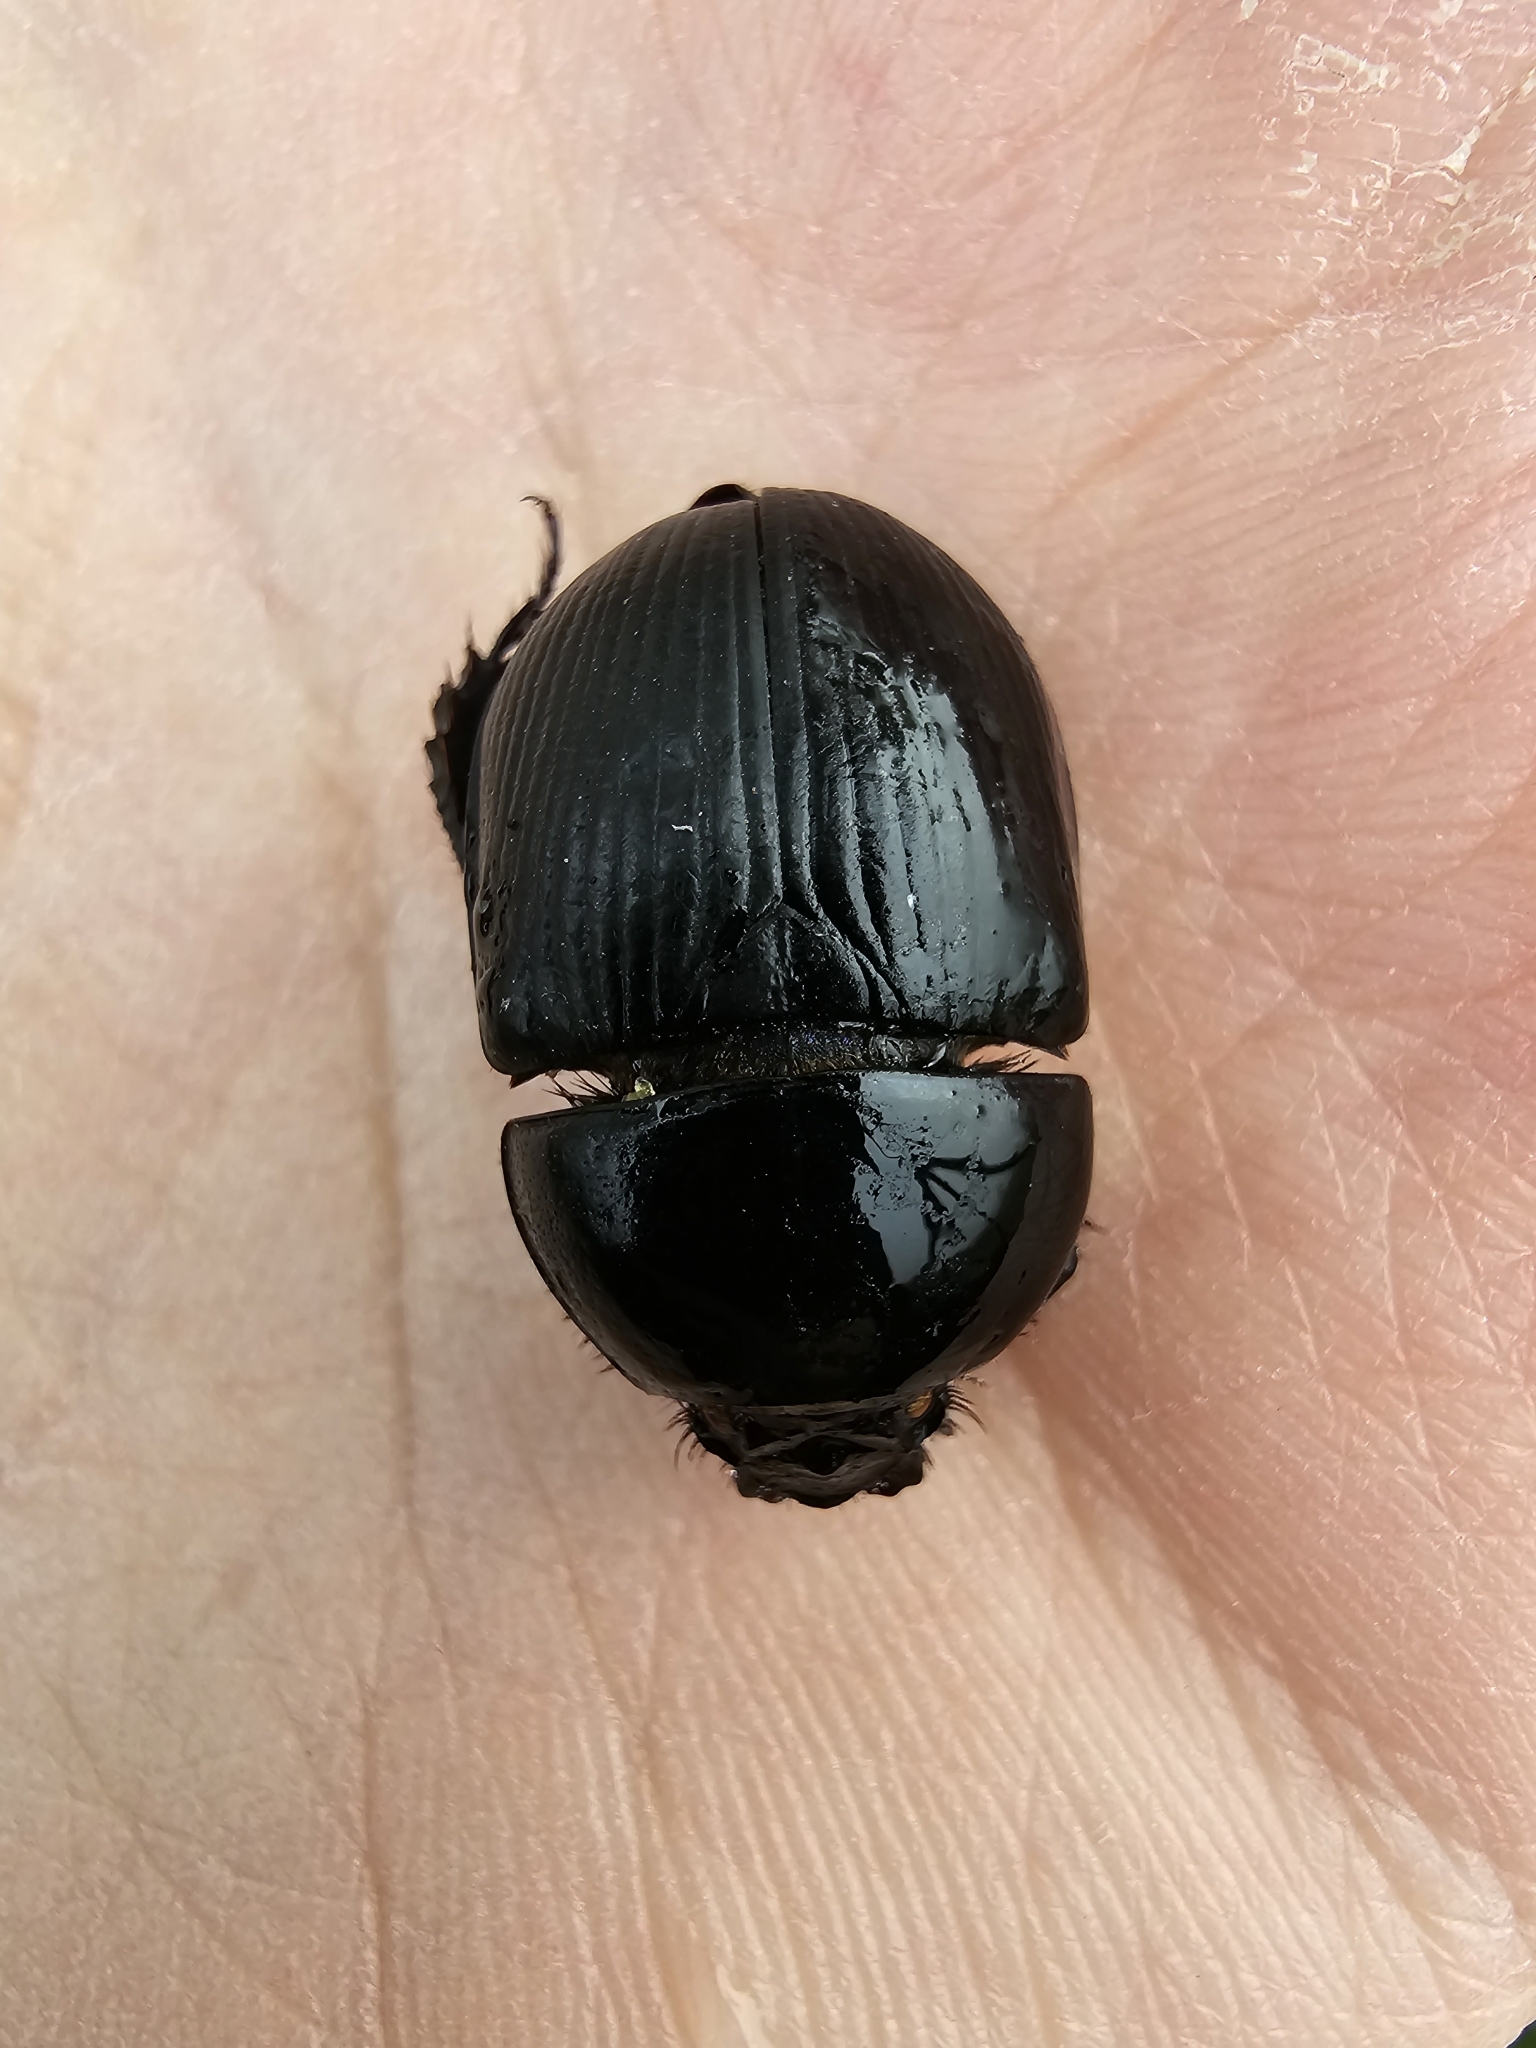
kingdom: Animalia
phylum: Arthropoda
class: Insecta
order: Coleoptera
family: Geotrupidae
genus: Geotrupes
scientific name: Geotrupes spiniger
